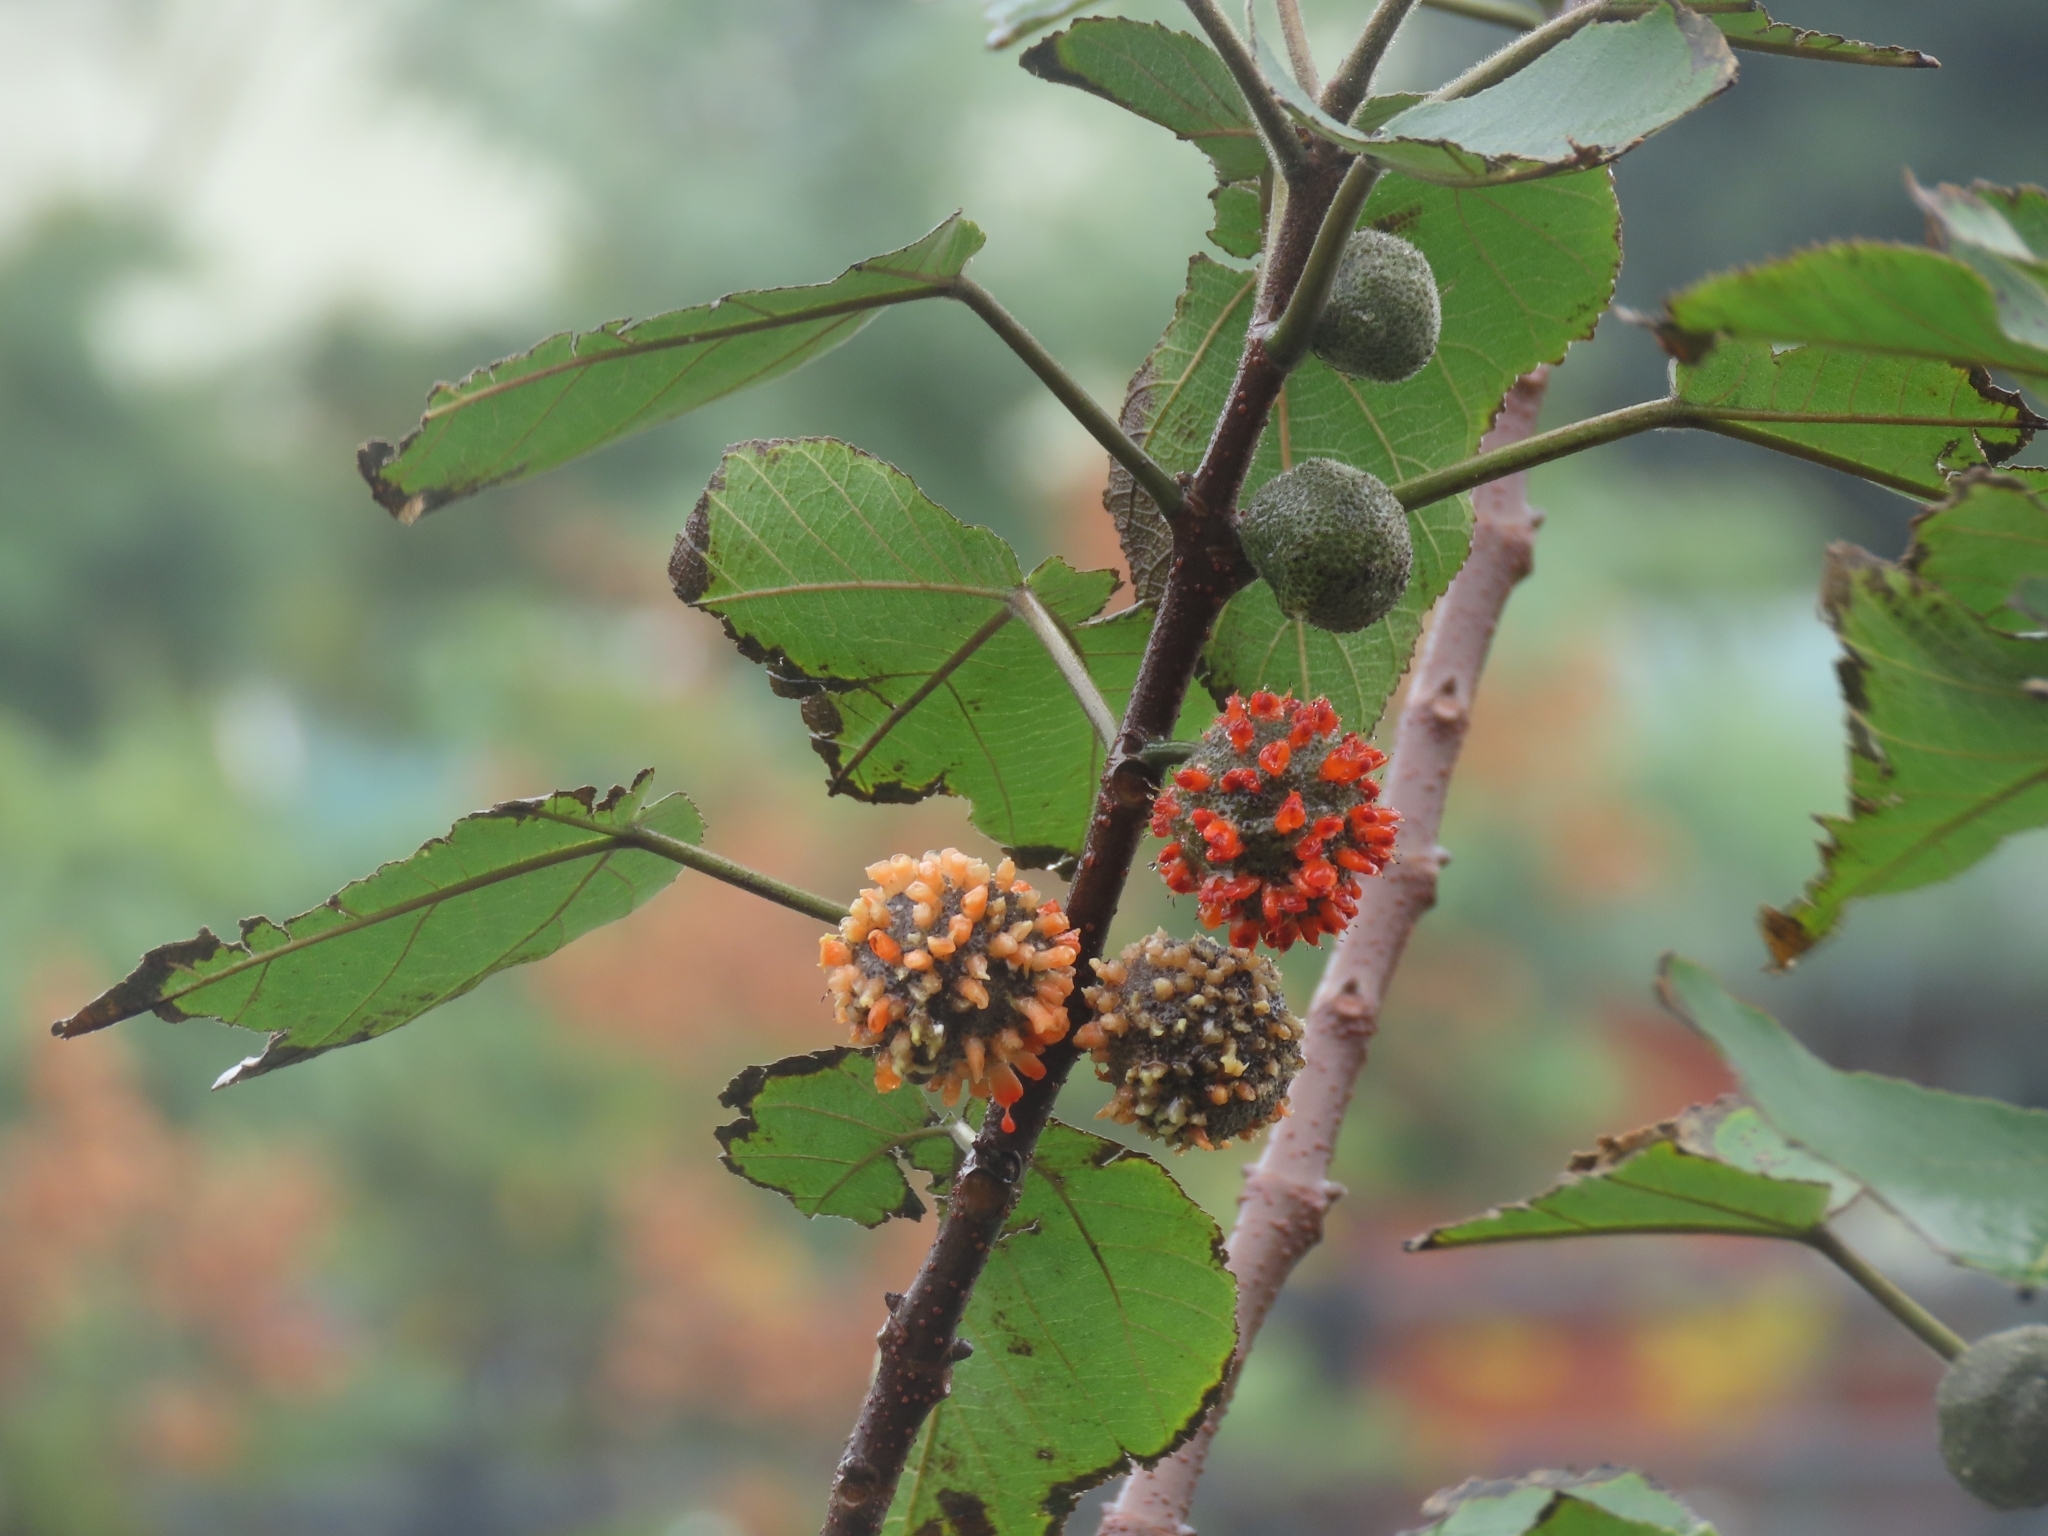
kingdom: Plantae
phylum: Tracheophyta
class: Magnoliopsida
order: Rosales
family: Moraceae
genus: Broussonetia
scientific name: Broussonetia papyrifera
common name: Paper mulberry
